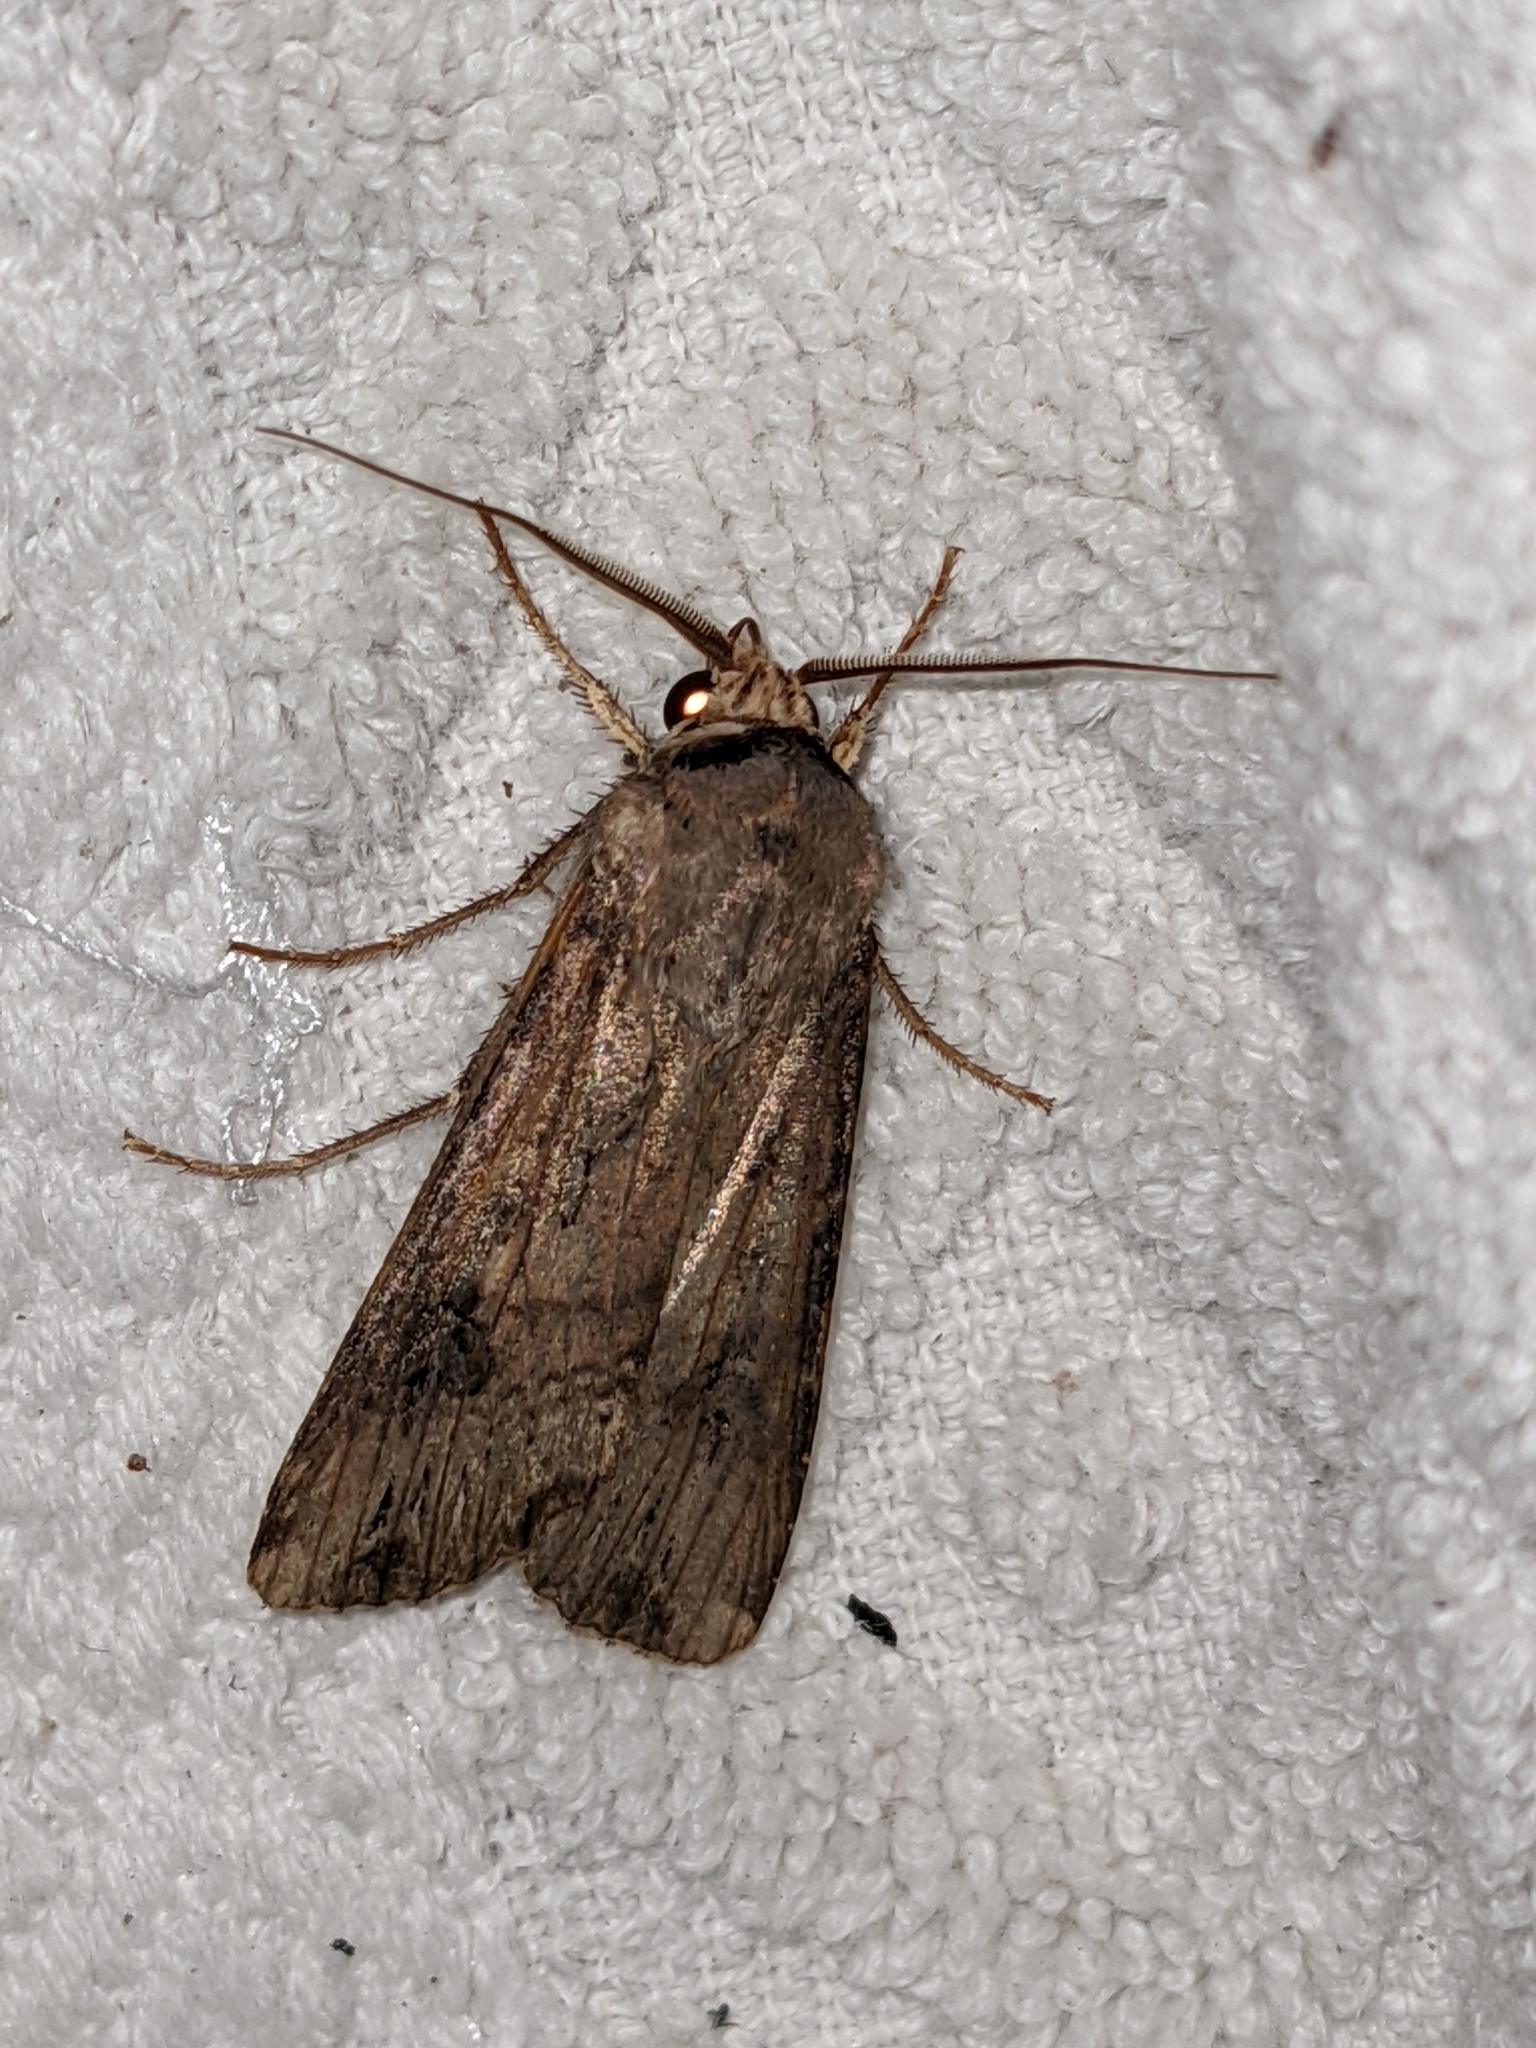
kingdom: Animalia
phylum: Arthropoda
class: Insecta
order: Lepidoptera
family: Noctuidae
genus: Agrotis
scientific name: Agrotis ipsilon
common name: Dark sword-grass
